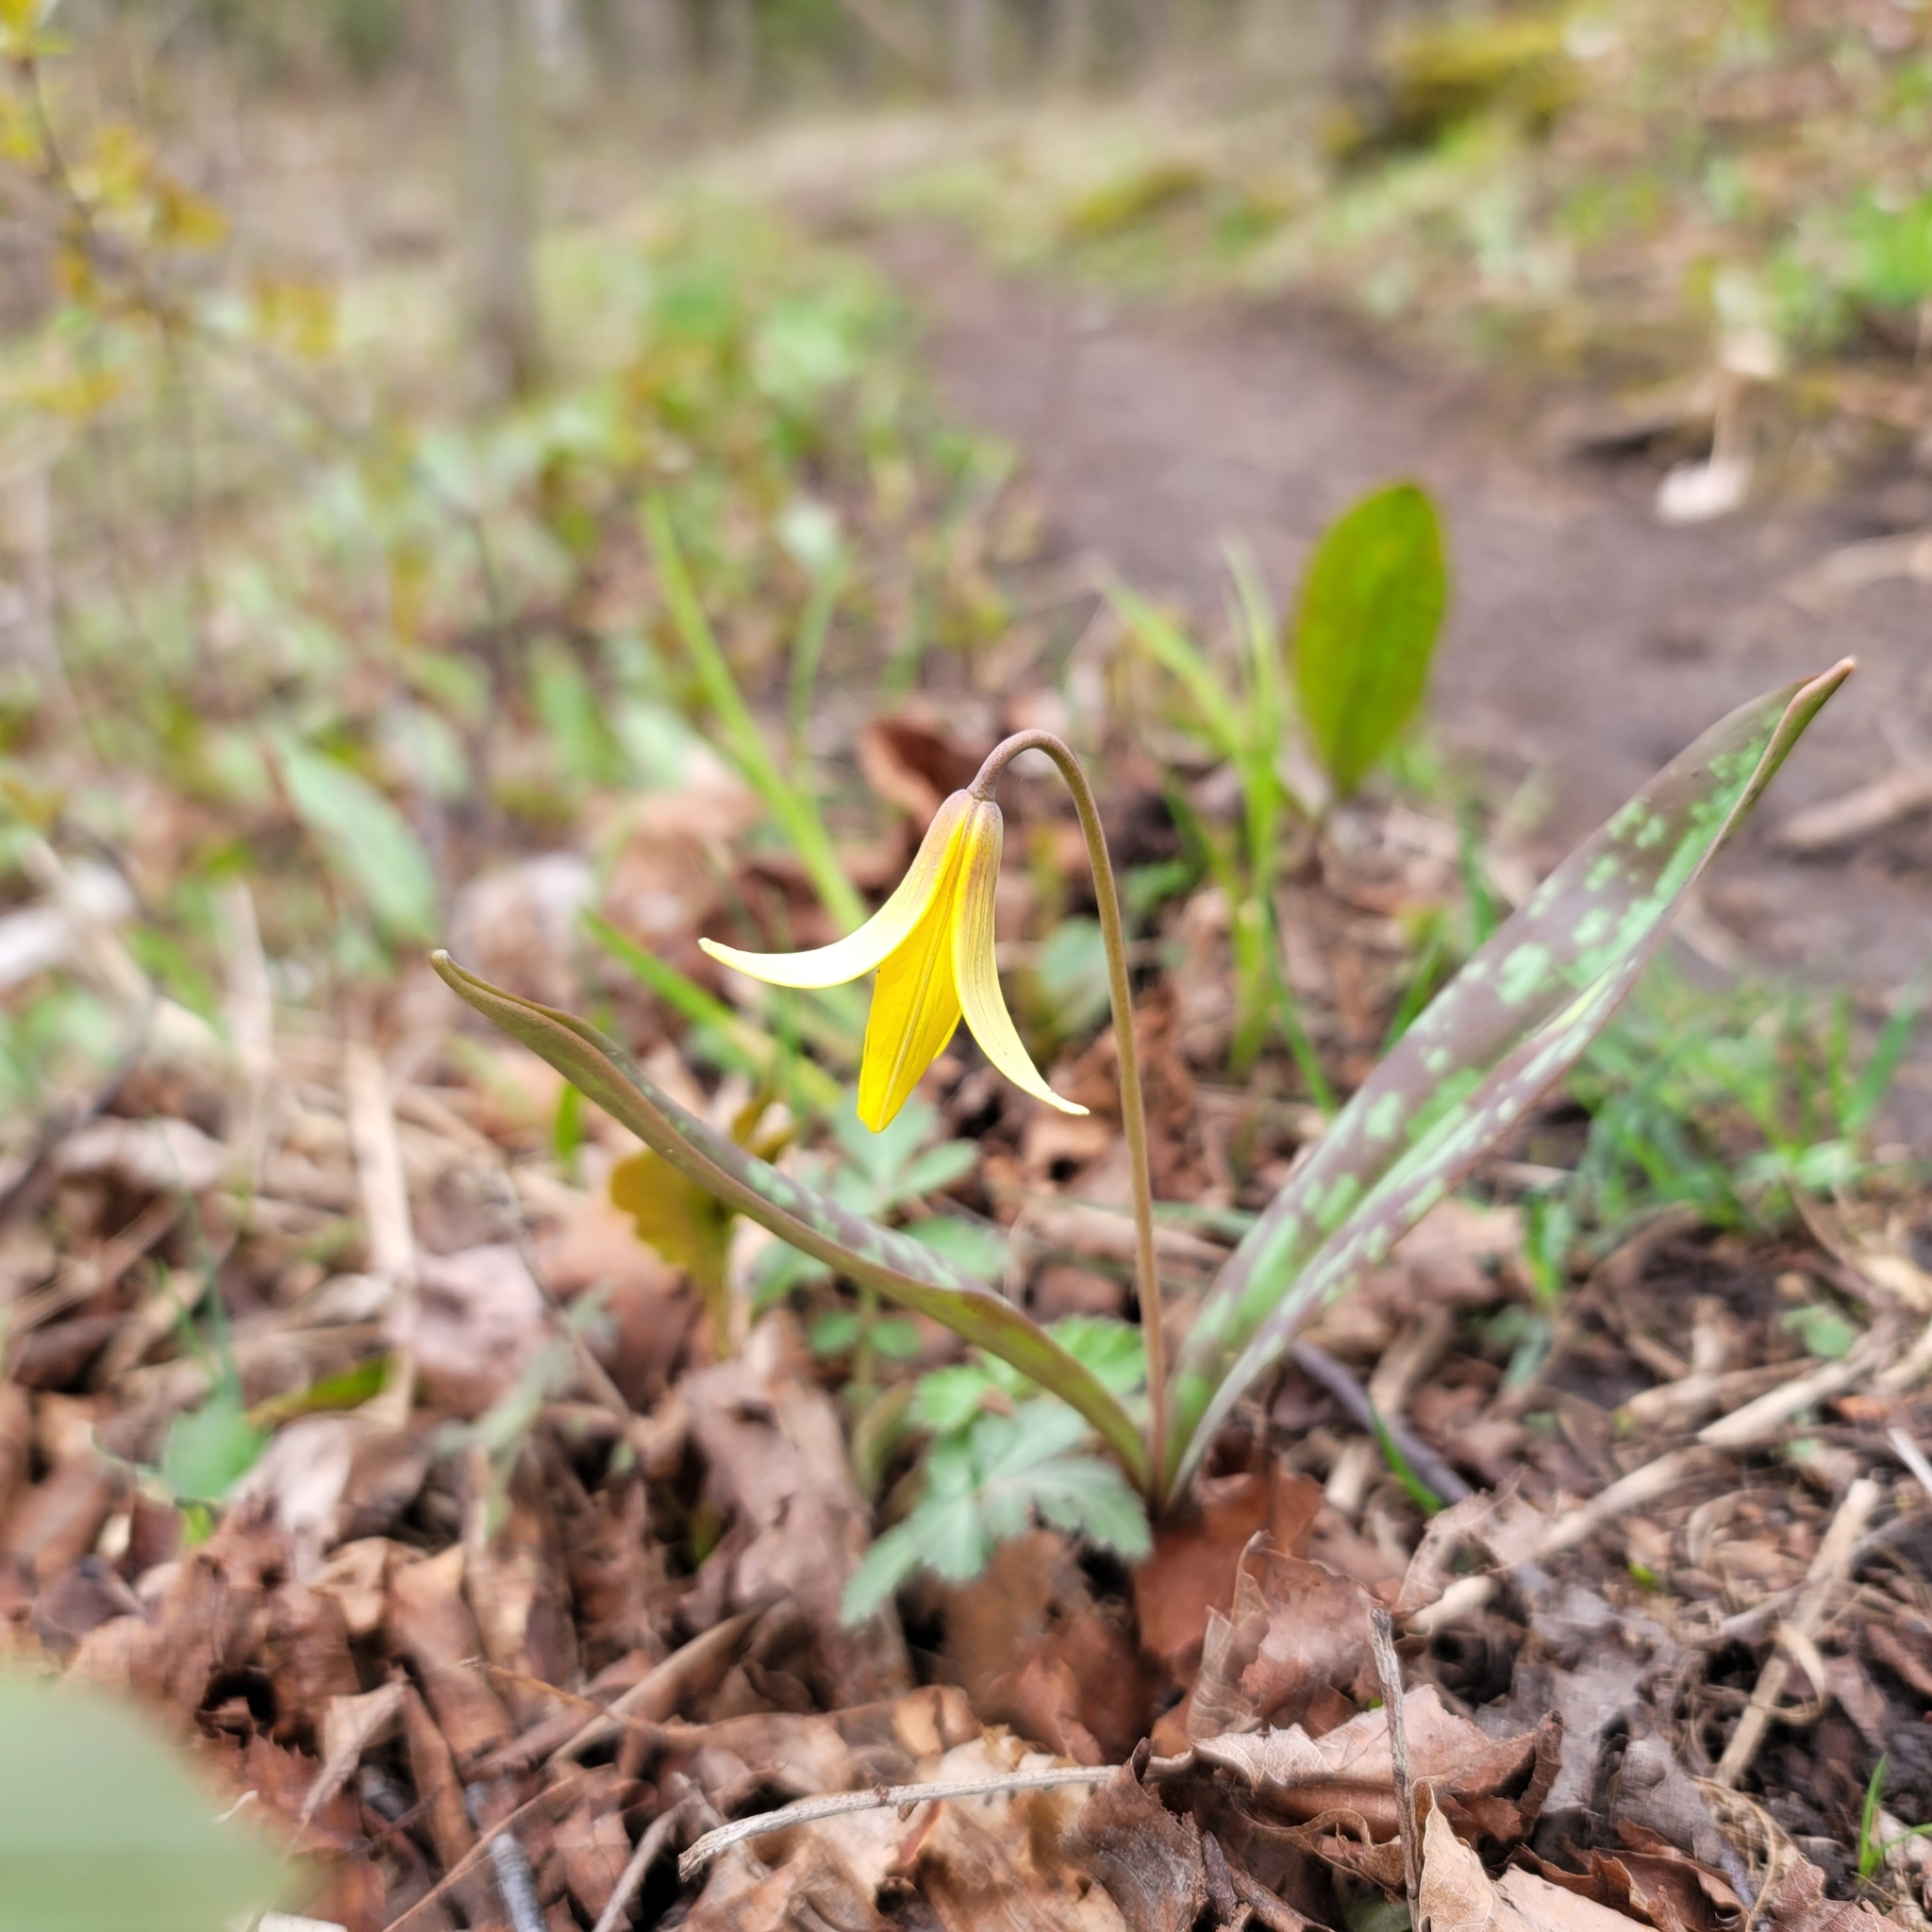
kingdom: Plantae
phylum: Tracheophyta
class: Liliopsida
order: Liliales
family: Liliaceae
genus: Erythronium
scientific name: Erythronium americanum
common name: Yellow adder's-tongue
